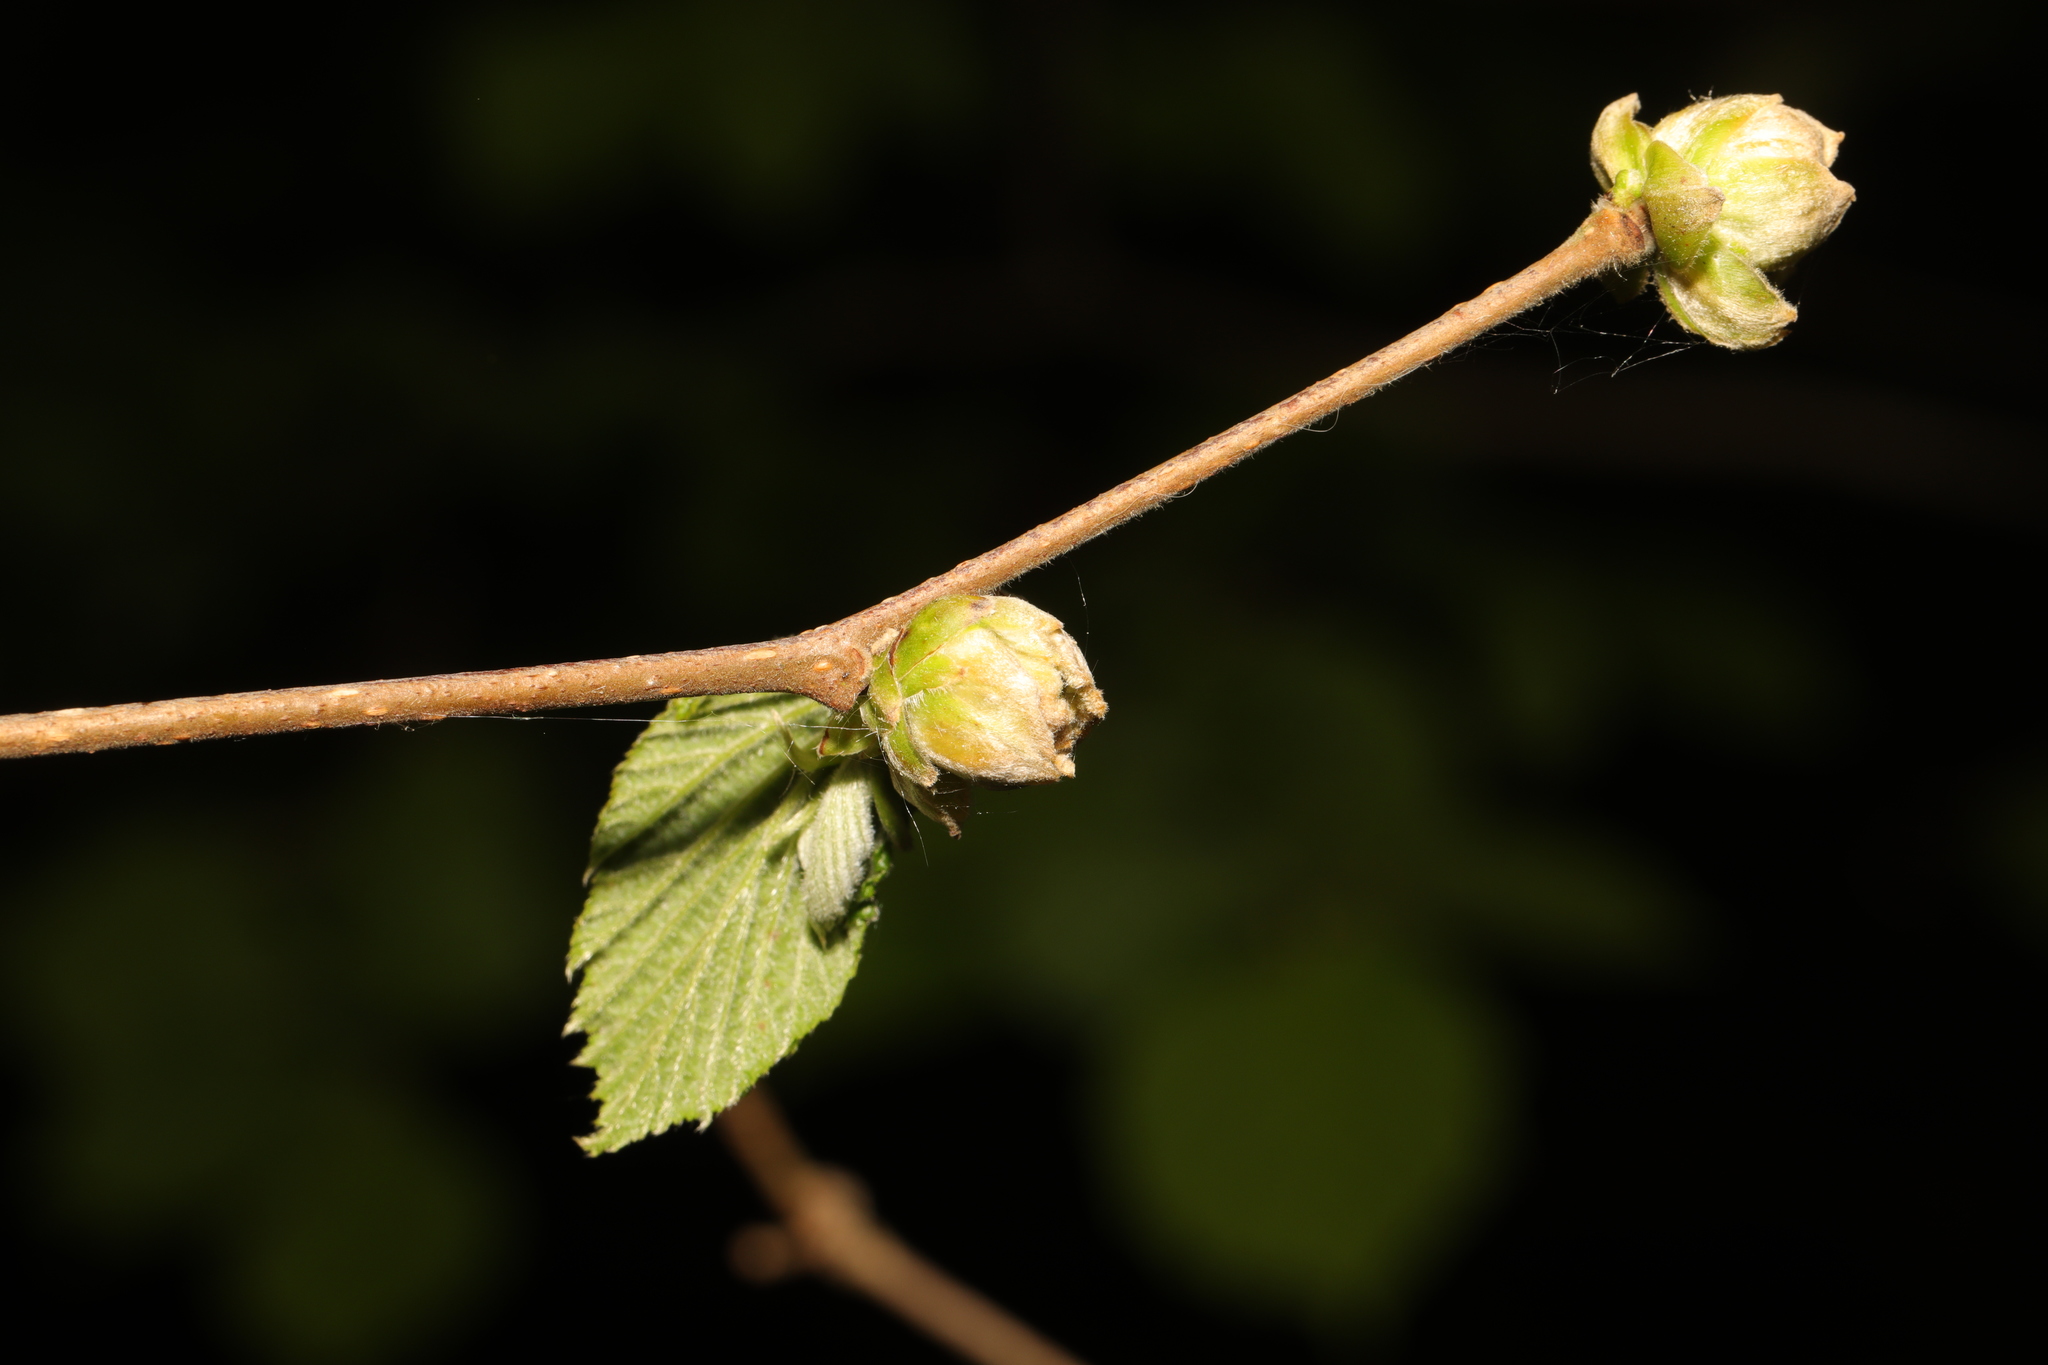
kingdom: Animalia
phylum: Arthropoda
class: Arachnida
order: Trombidiformes
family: Phytoptidae
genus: Phytoptus
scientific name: Phytoptus avellanae
